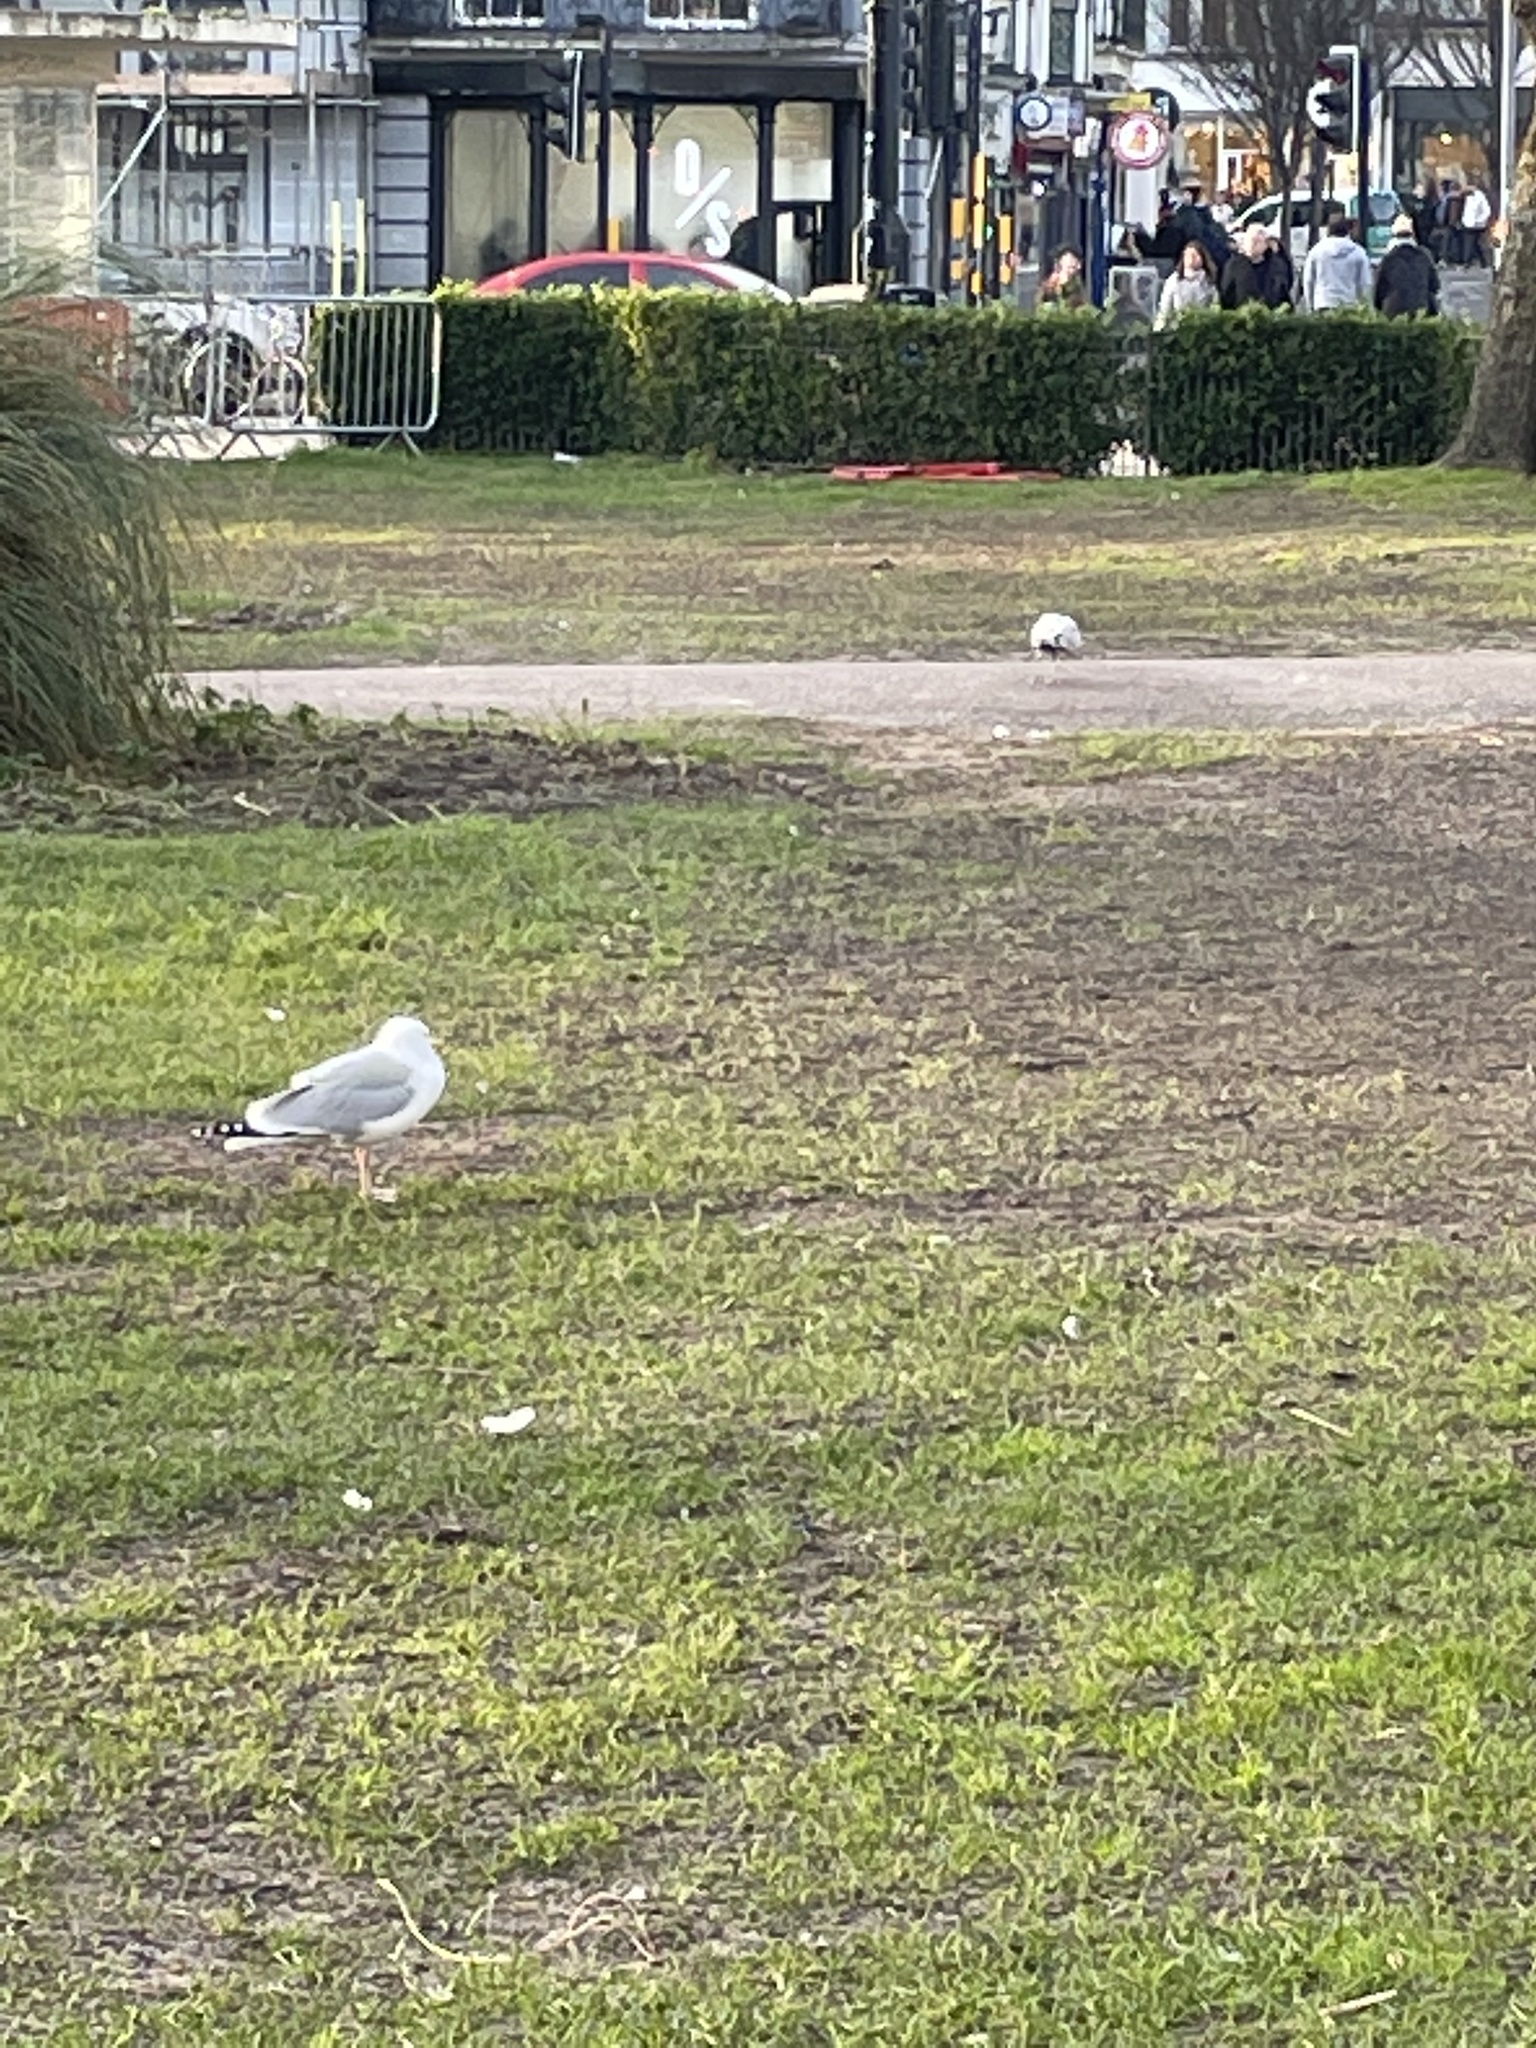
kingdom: Animalia
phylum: Chordata
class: Aves
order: Charadriiformes
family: Laridae
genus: Larus
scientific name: Larus argentatus
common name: Herring gull
